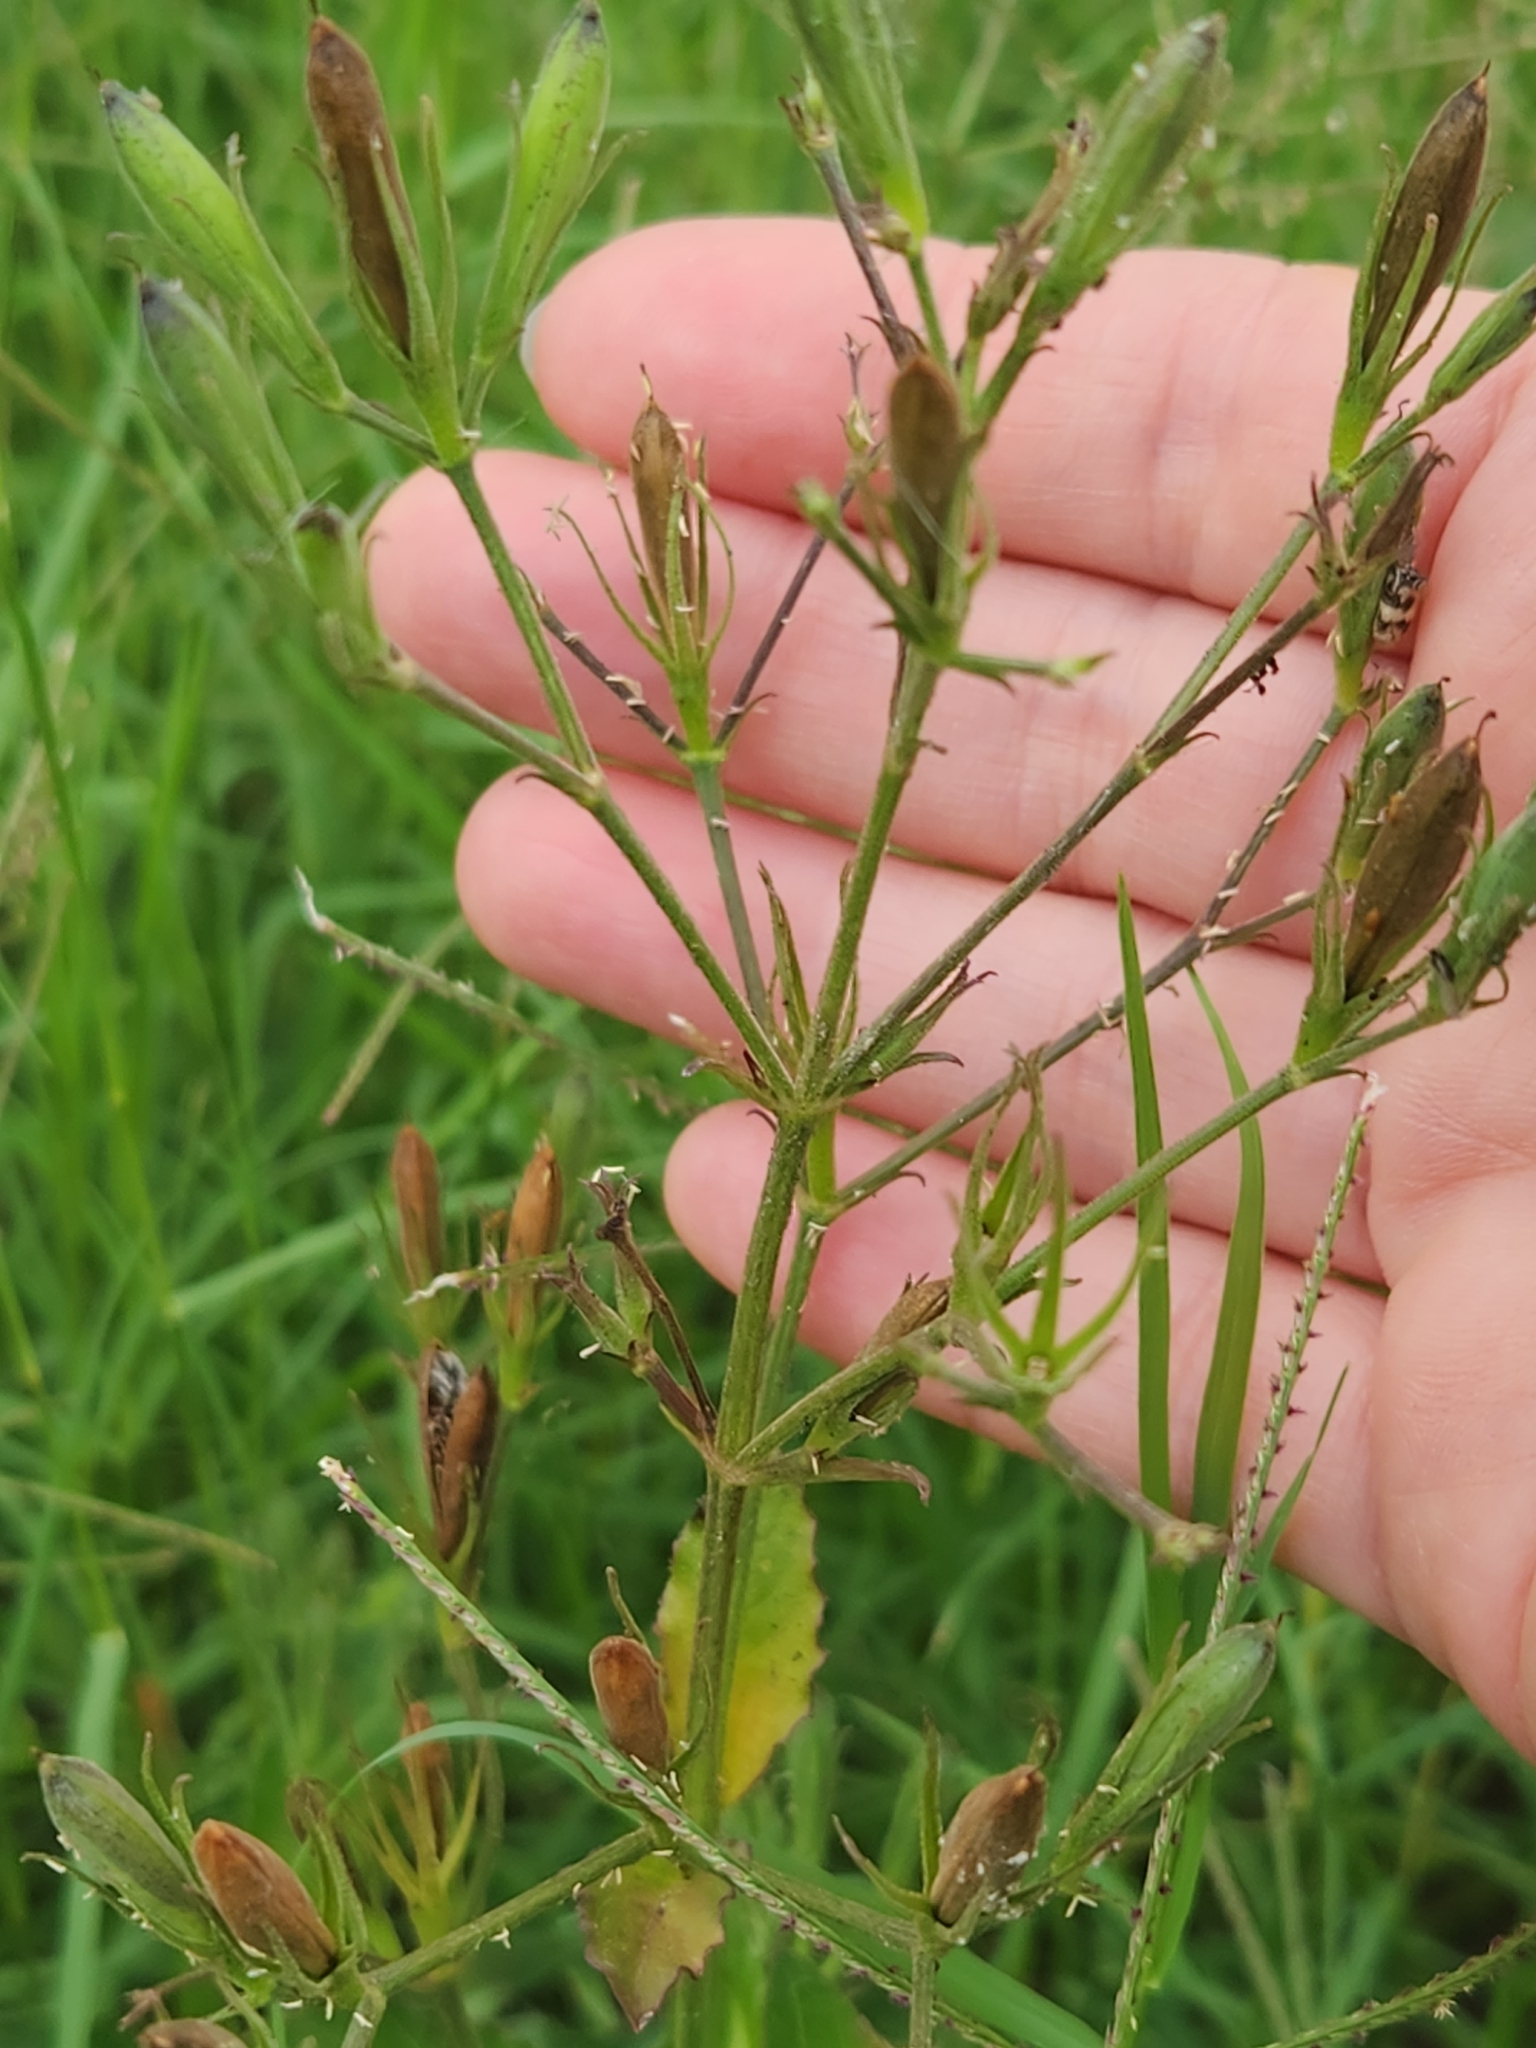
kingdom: Plantae
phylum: Tracheophyta
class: Magnoliopsida
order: Lamiales
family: Acanthaceae
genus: Ruellia
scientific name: Ruellia ciliatiflora
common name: Hairyflower wild petunia
